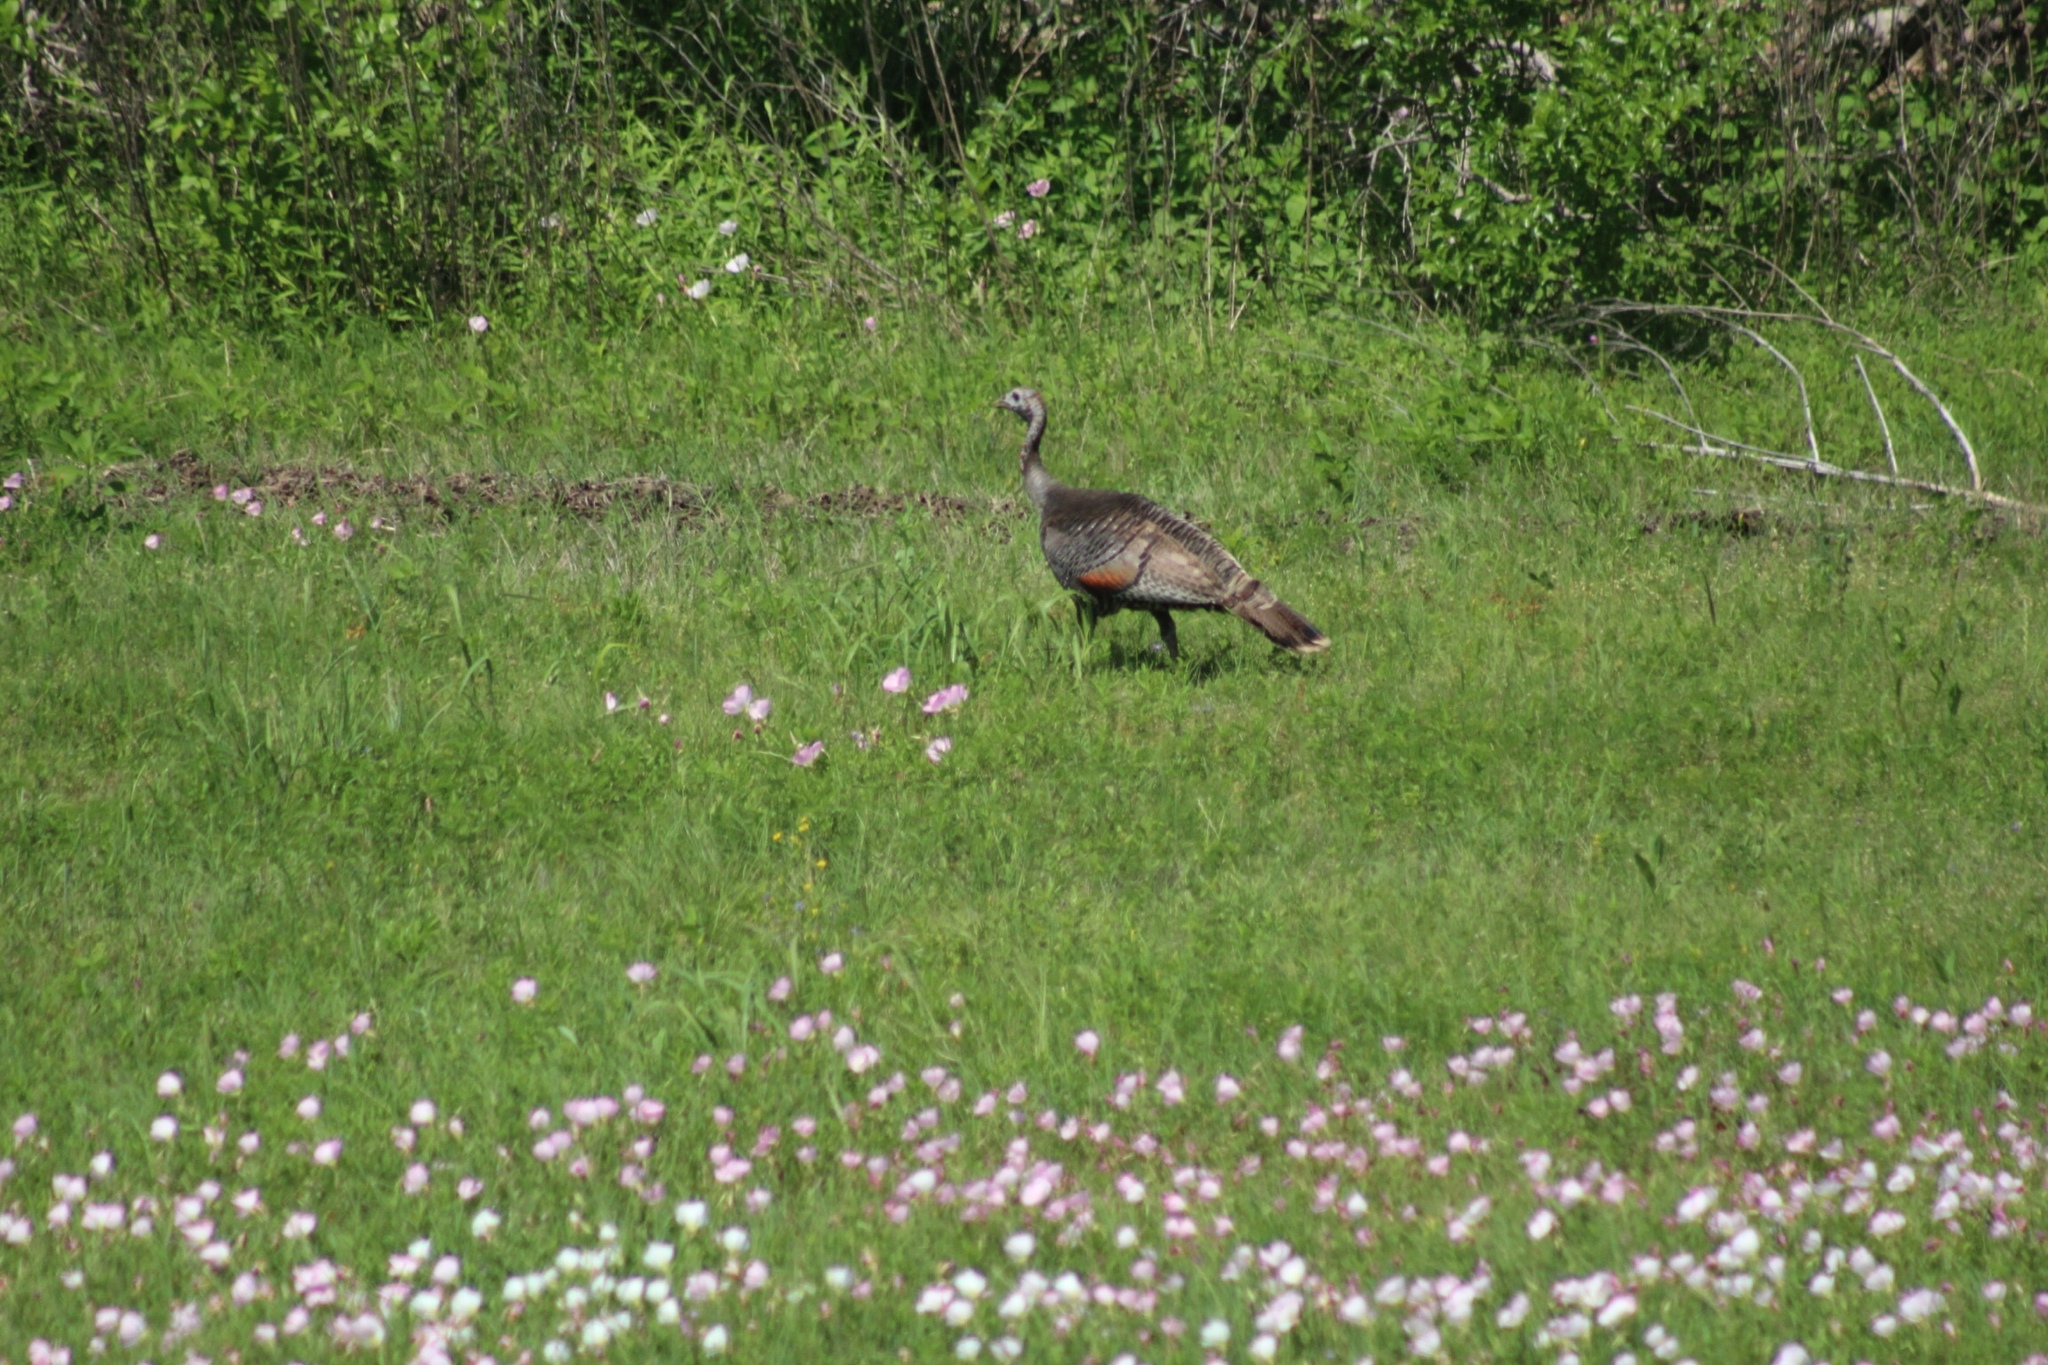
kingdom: Animalia
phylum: Chordata
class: Aves
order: Galliformes
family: Phasianidae
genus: Meleagris
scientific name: Meleagris gallopavo
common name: Wild turkey
